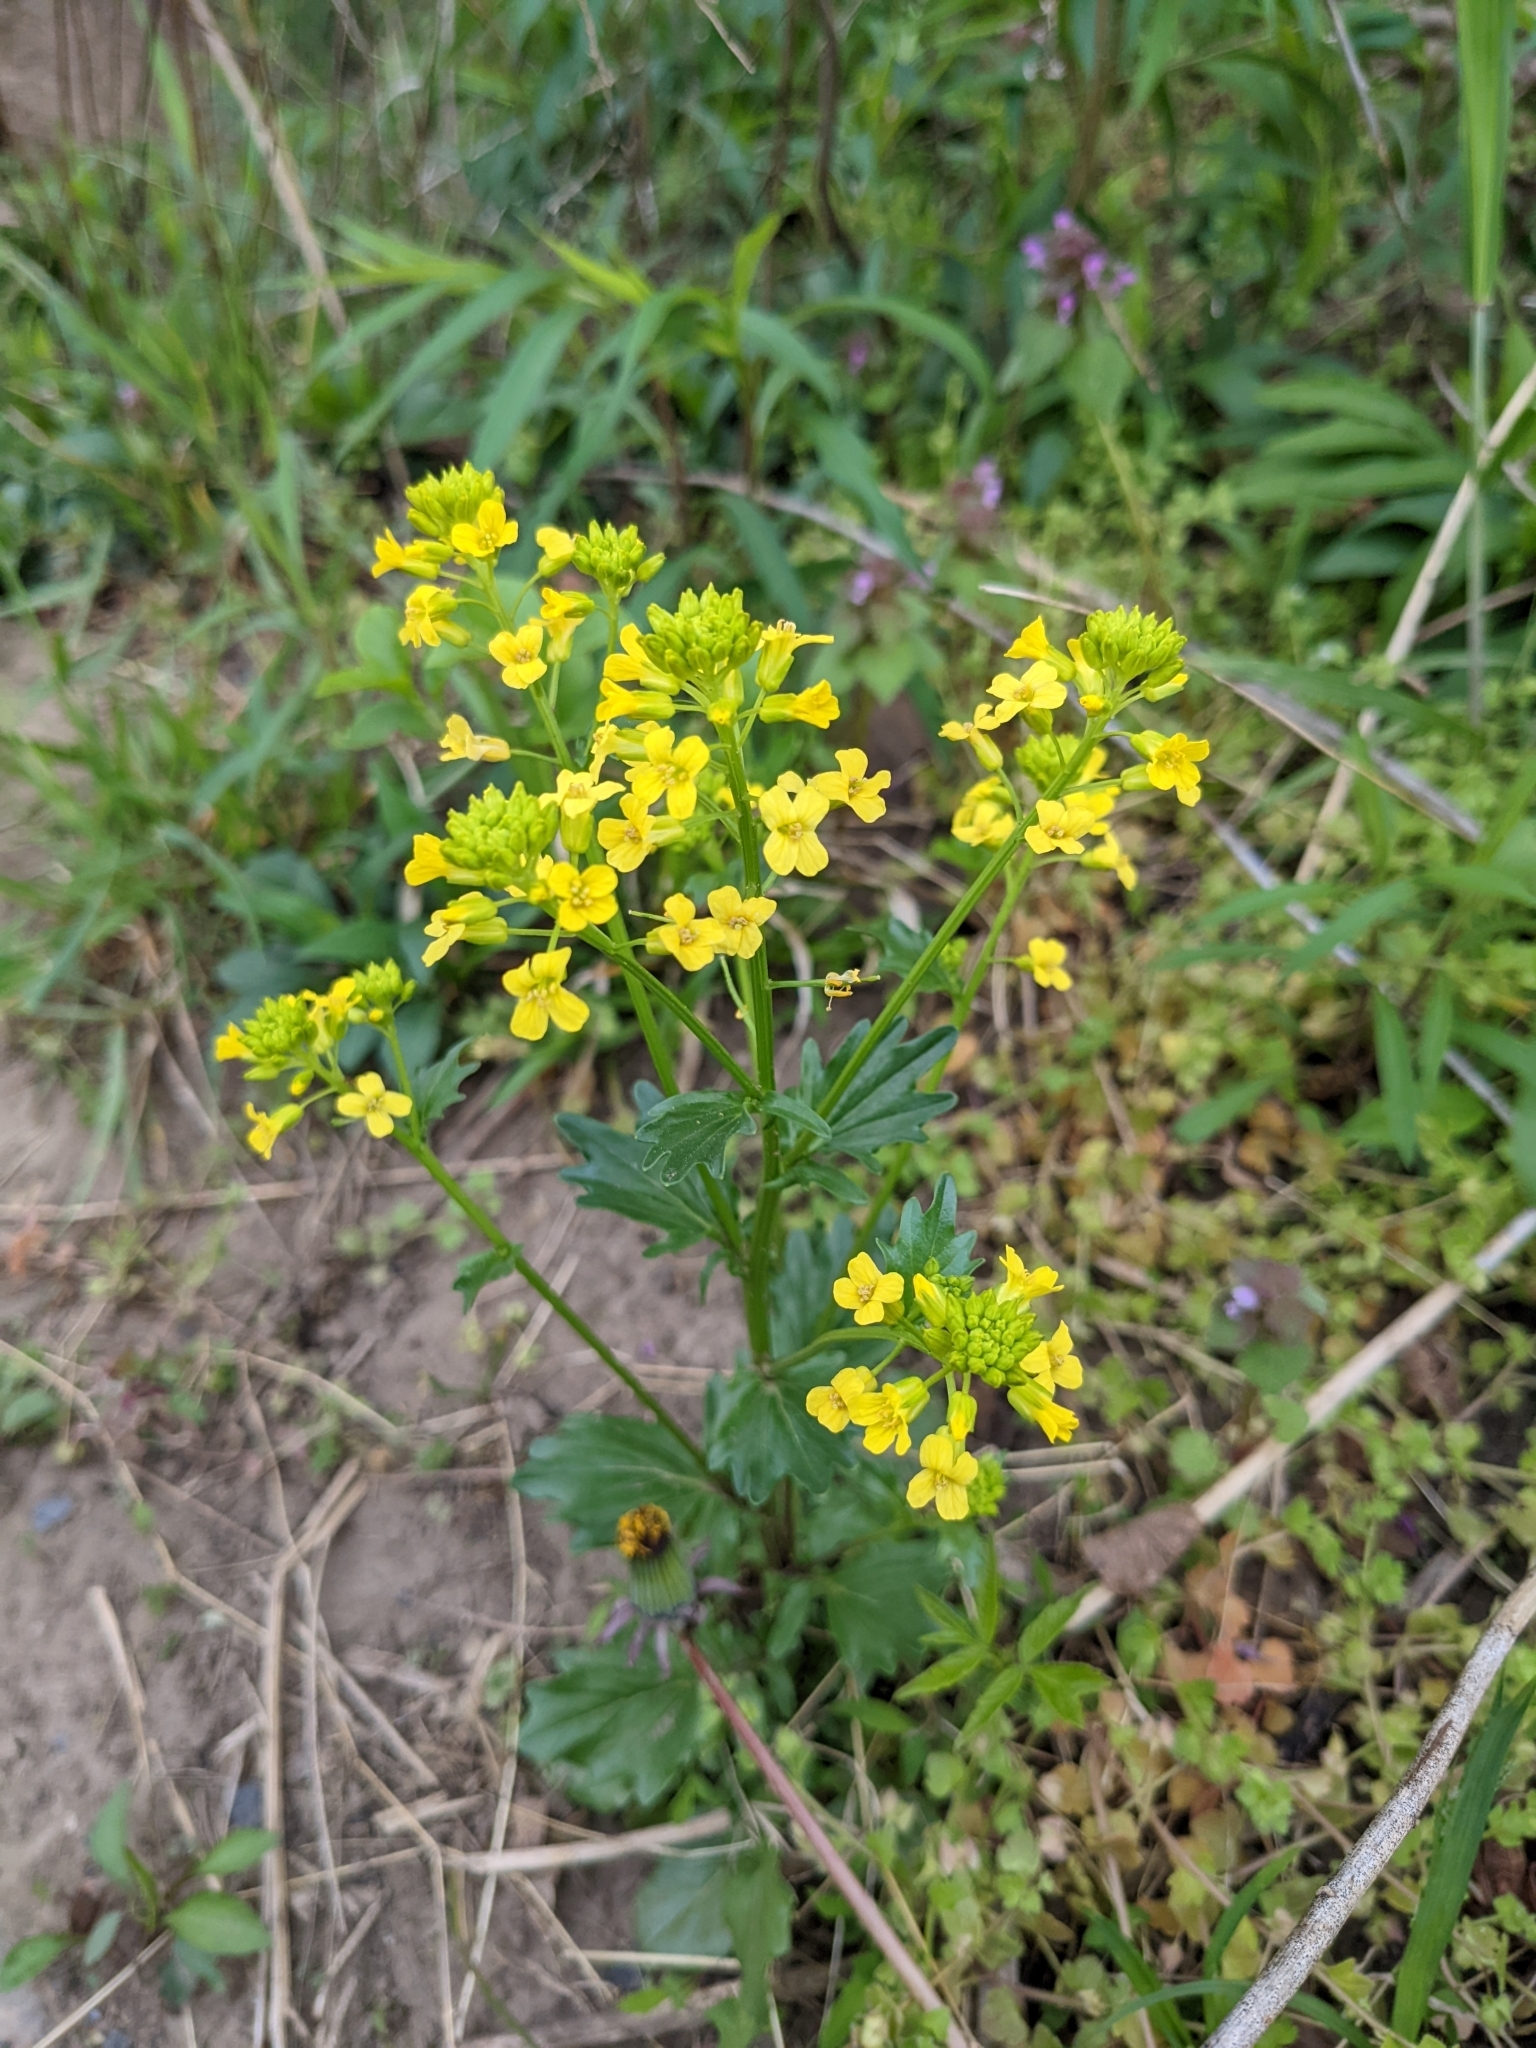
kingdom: Plantae
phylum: Tracheophyta
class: Magnoliopsida
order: Brassicales
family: Brassicaceae
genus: Barbarea
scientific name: Barbarea vulgaris
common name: Cressy-greens
